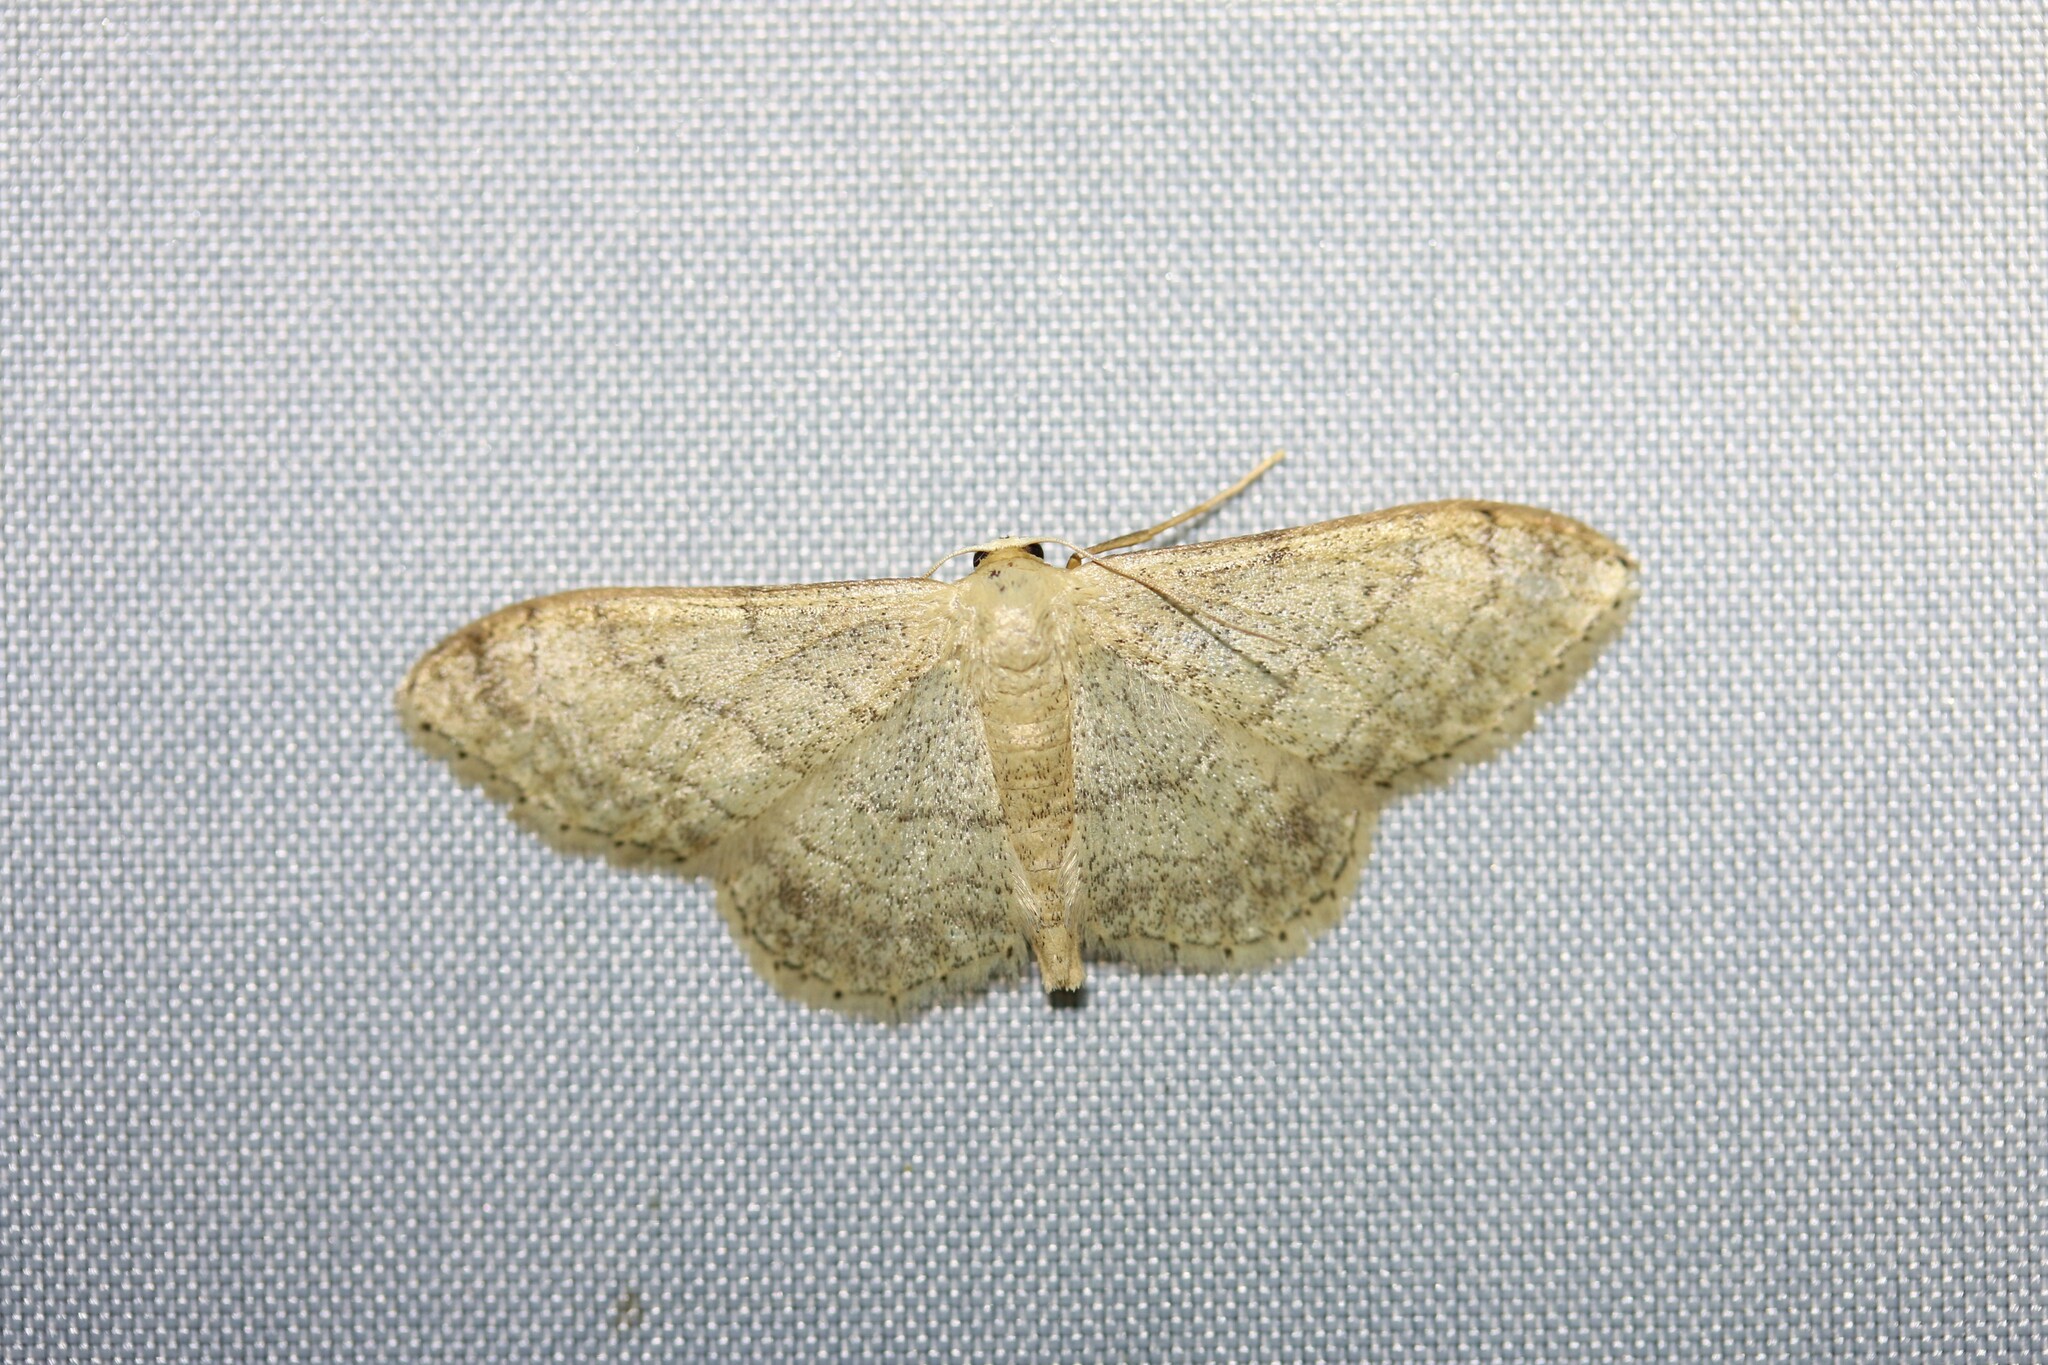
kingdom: Animalia
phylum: Arthropoda
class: Insecta
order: Lepidoptera
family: Geometridae
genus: Idaea
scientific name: Idaea aversata
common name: Riband wave
